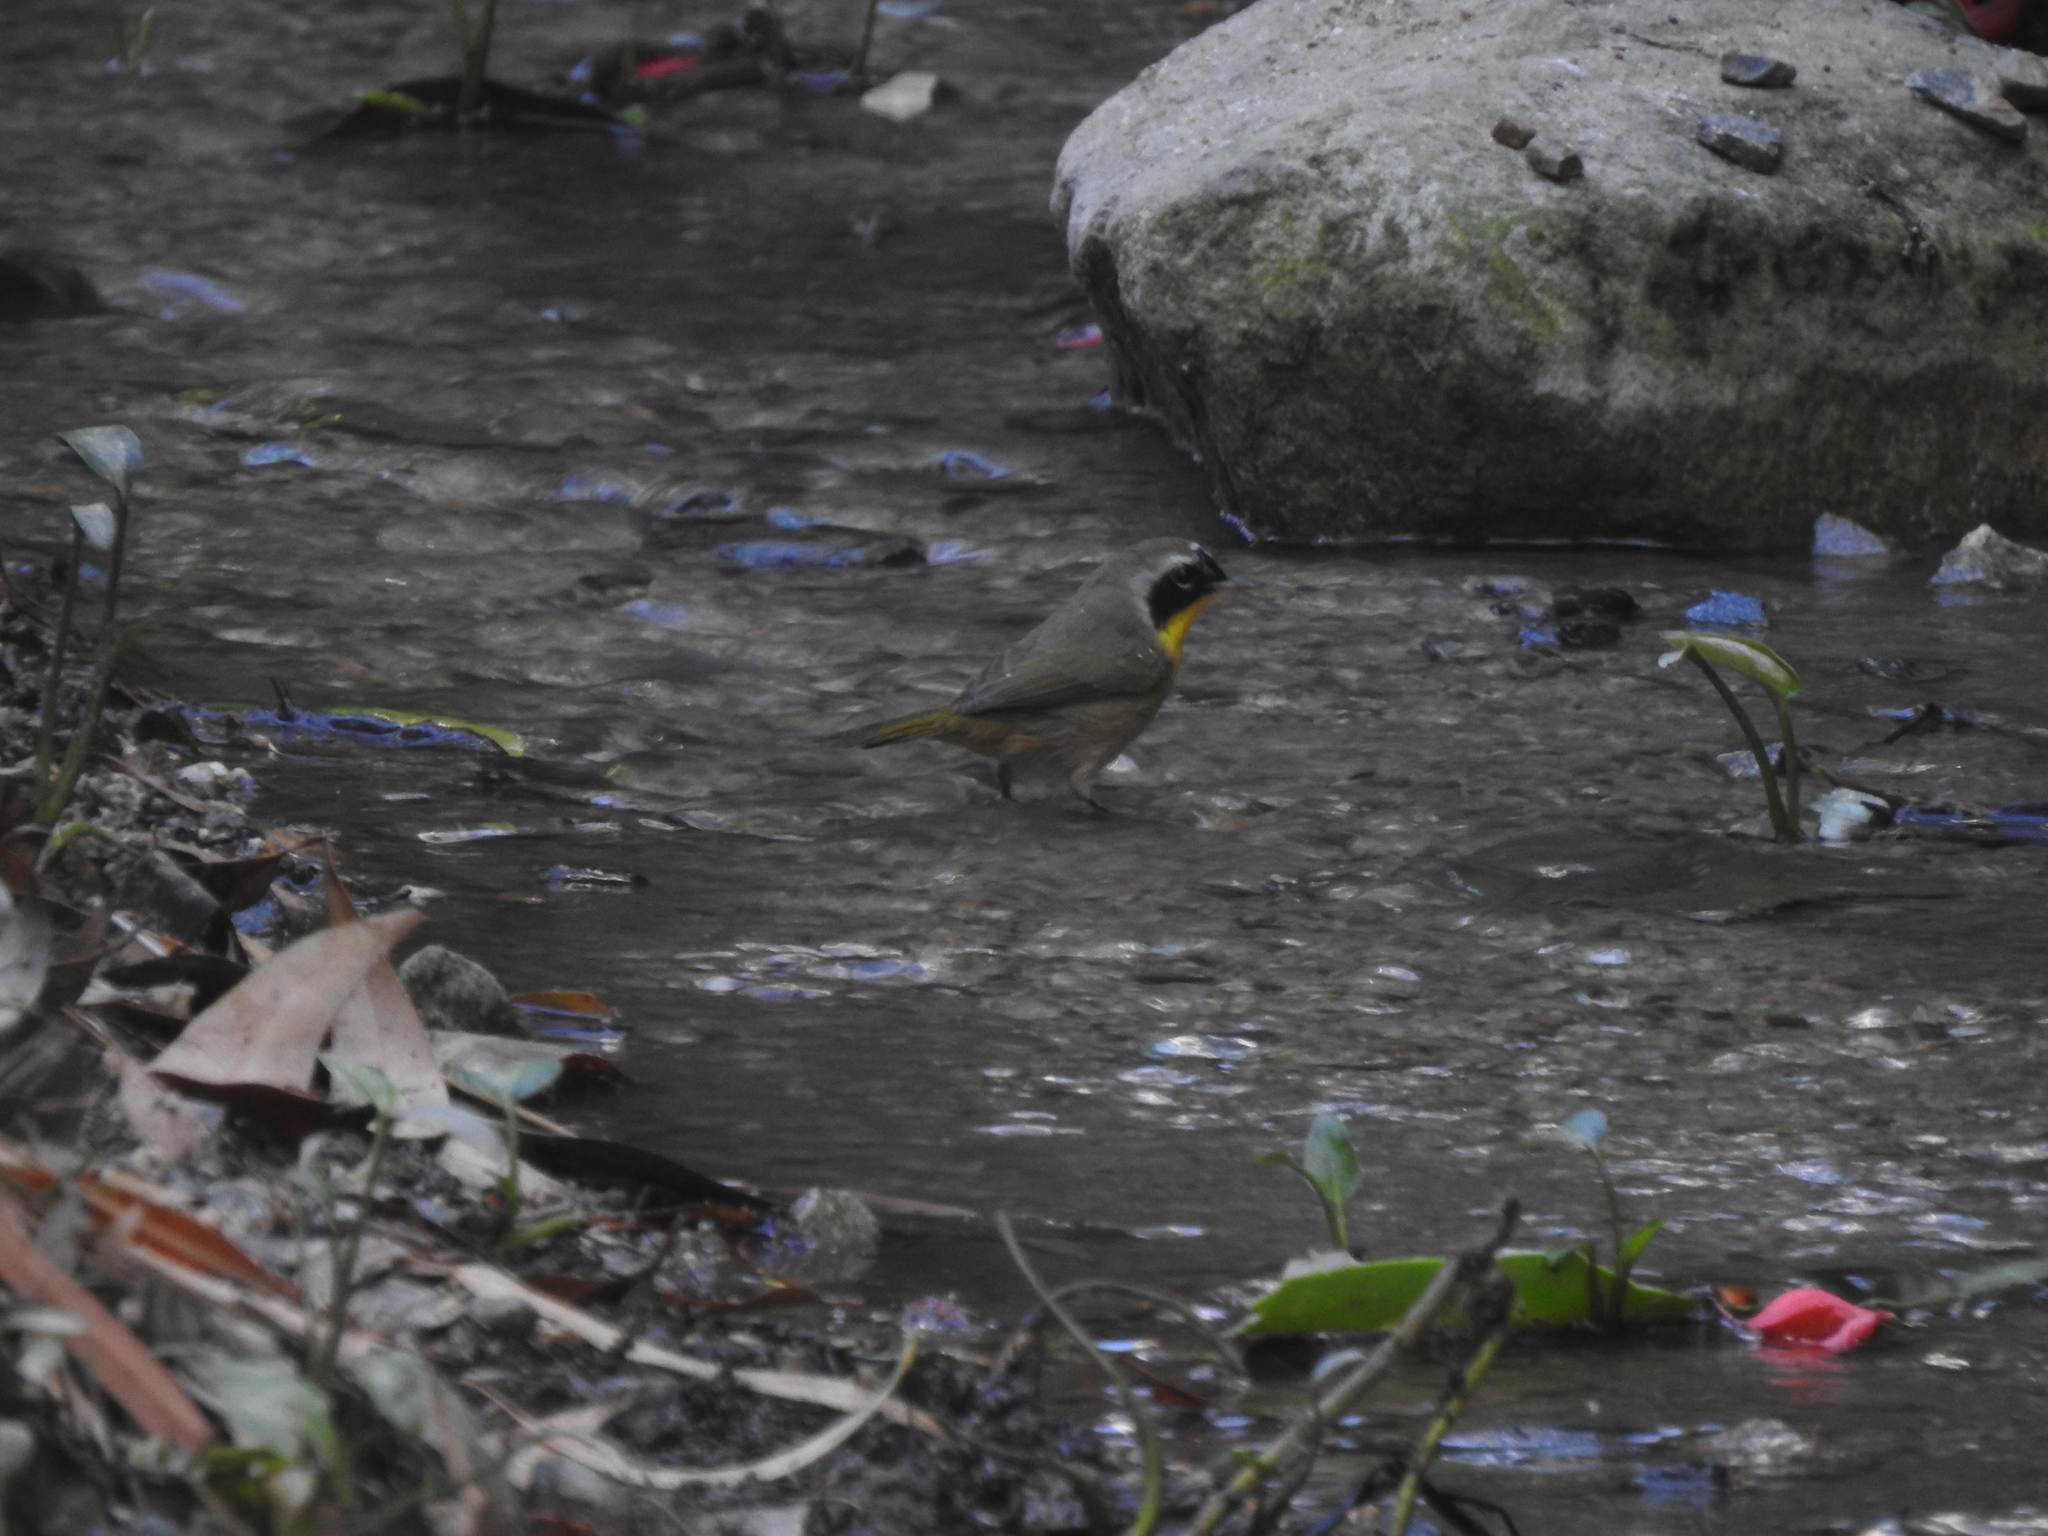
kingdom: Animalia
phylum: Chordata
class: Aves
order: Passeriformes
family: Parulidae
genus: Geothlypis
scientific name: Geothlypis trichas
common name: Common yellowthroat
